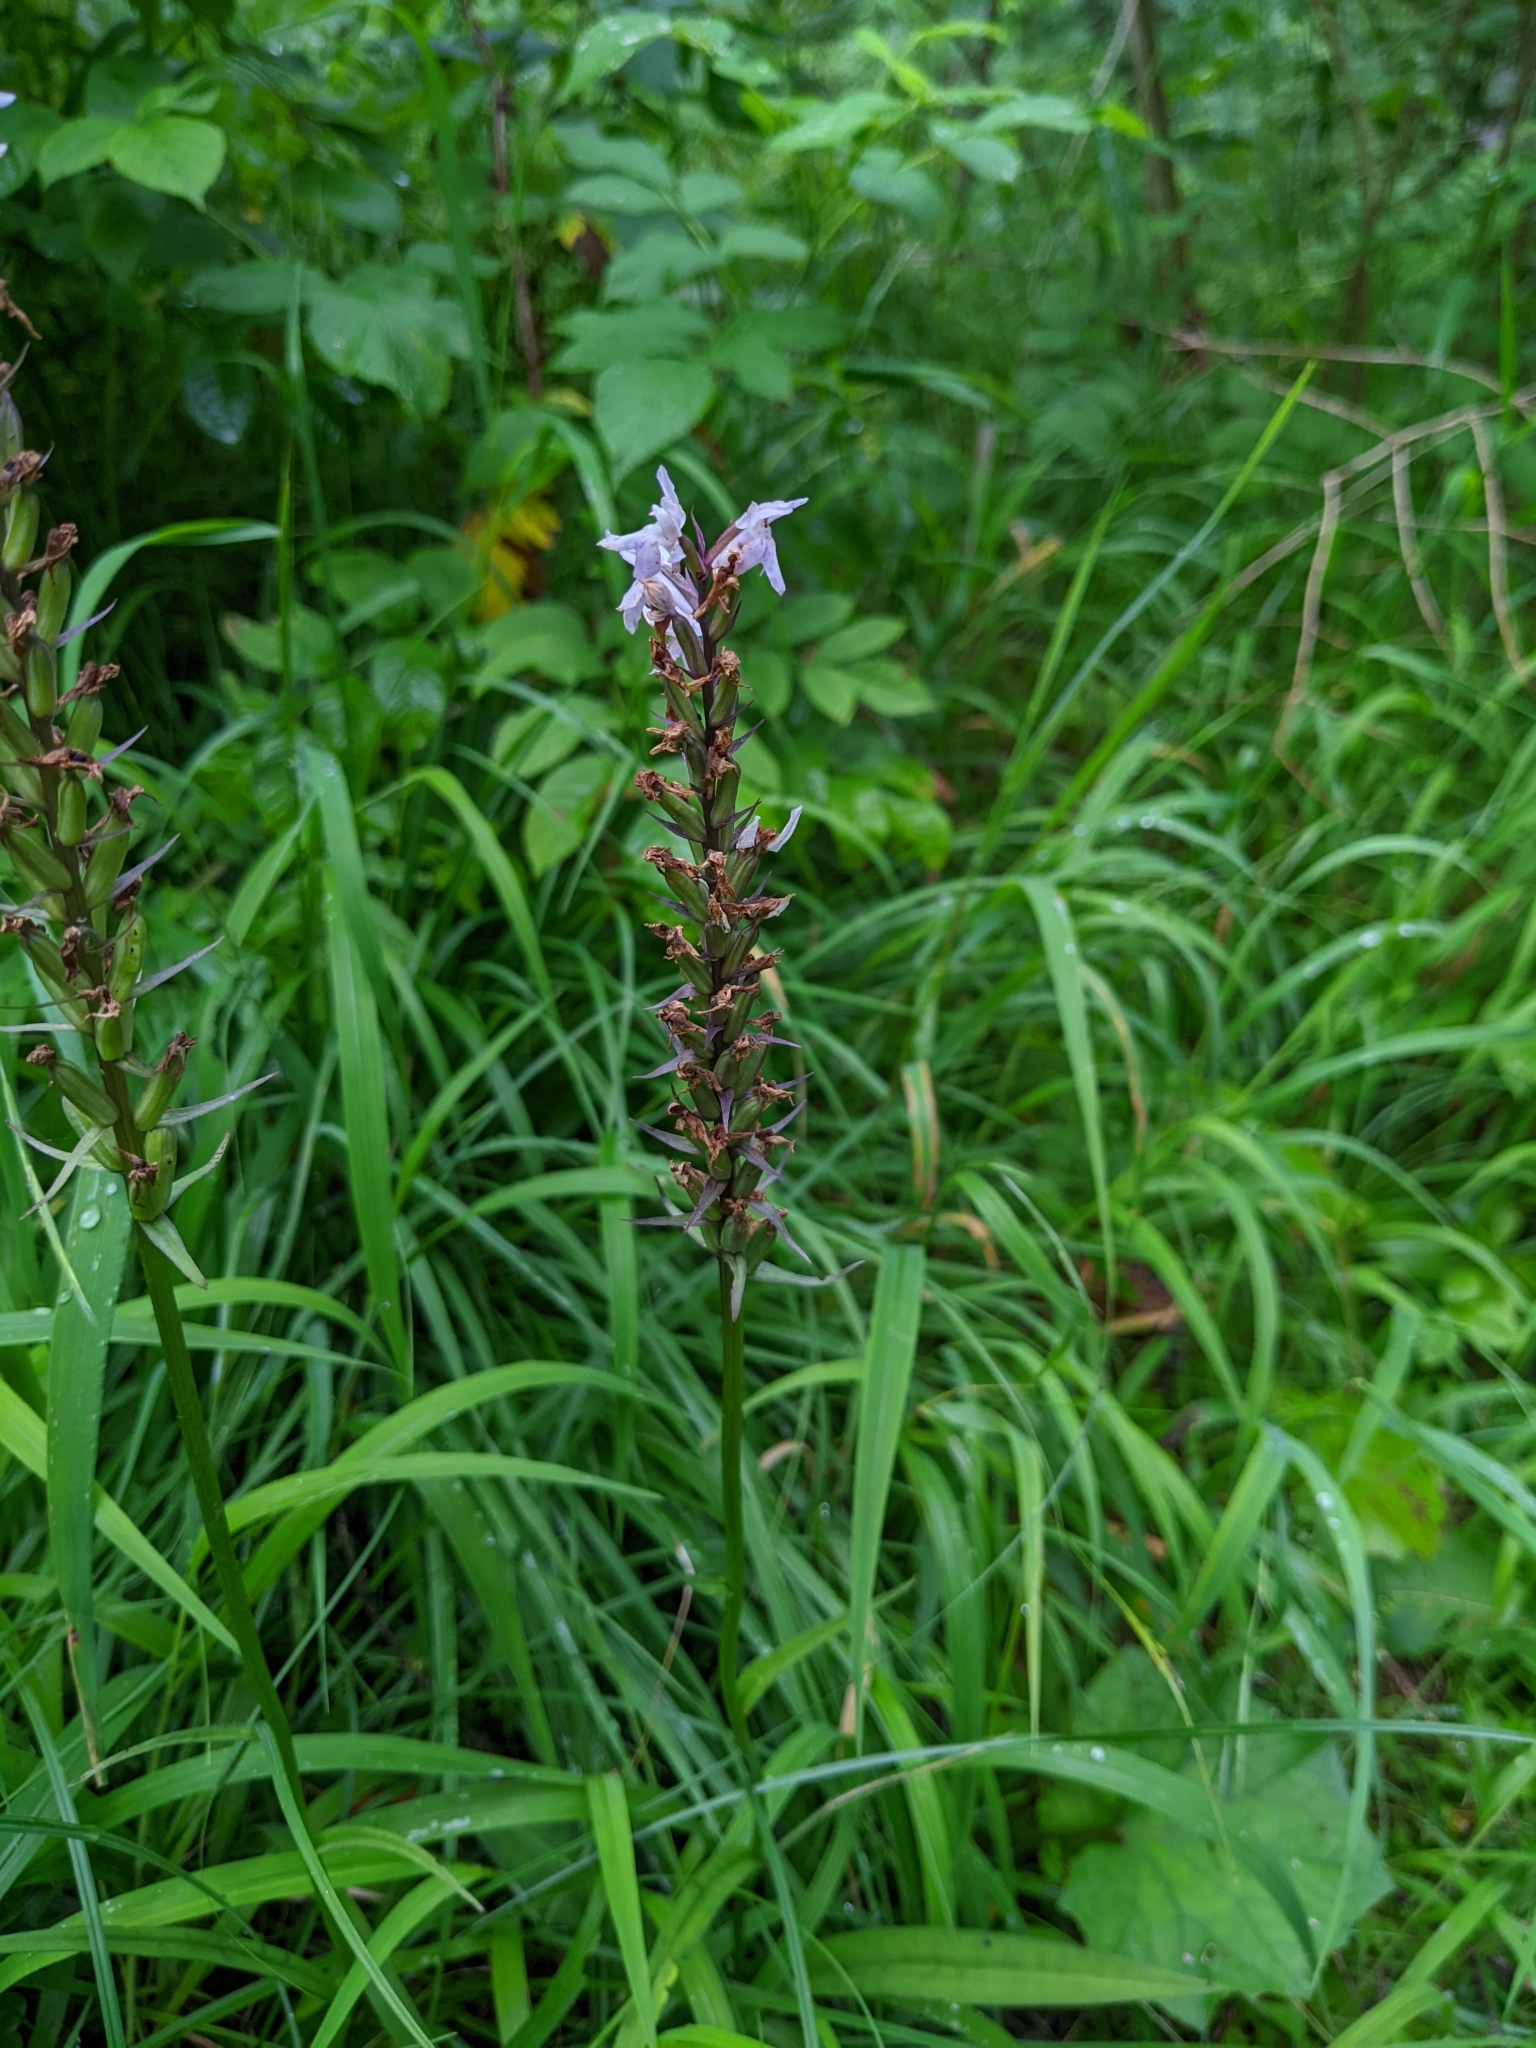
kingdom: Plantae
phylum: Tracheophyta
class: Liliopsida
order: Asparagales
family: Orchidaceae
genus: Dactylorhiza
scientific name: Dactylorhiza maculata
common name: Heath spotted-orchid
